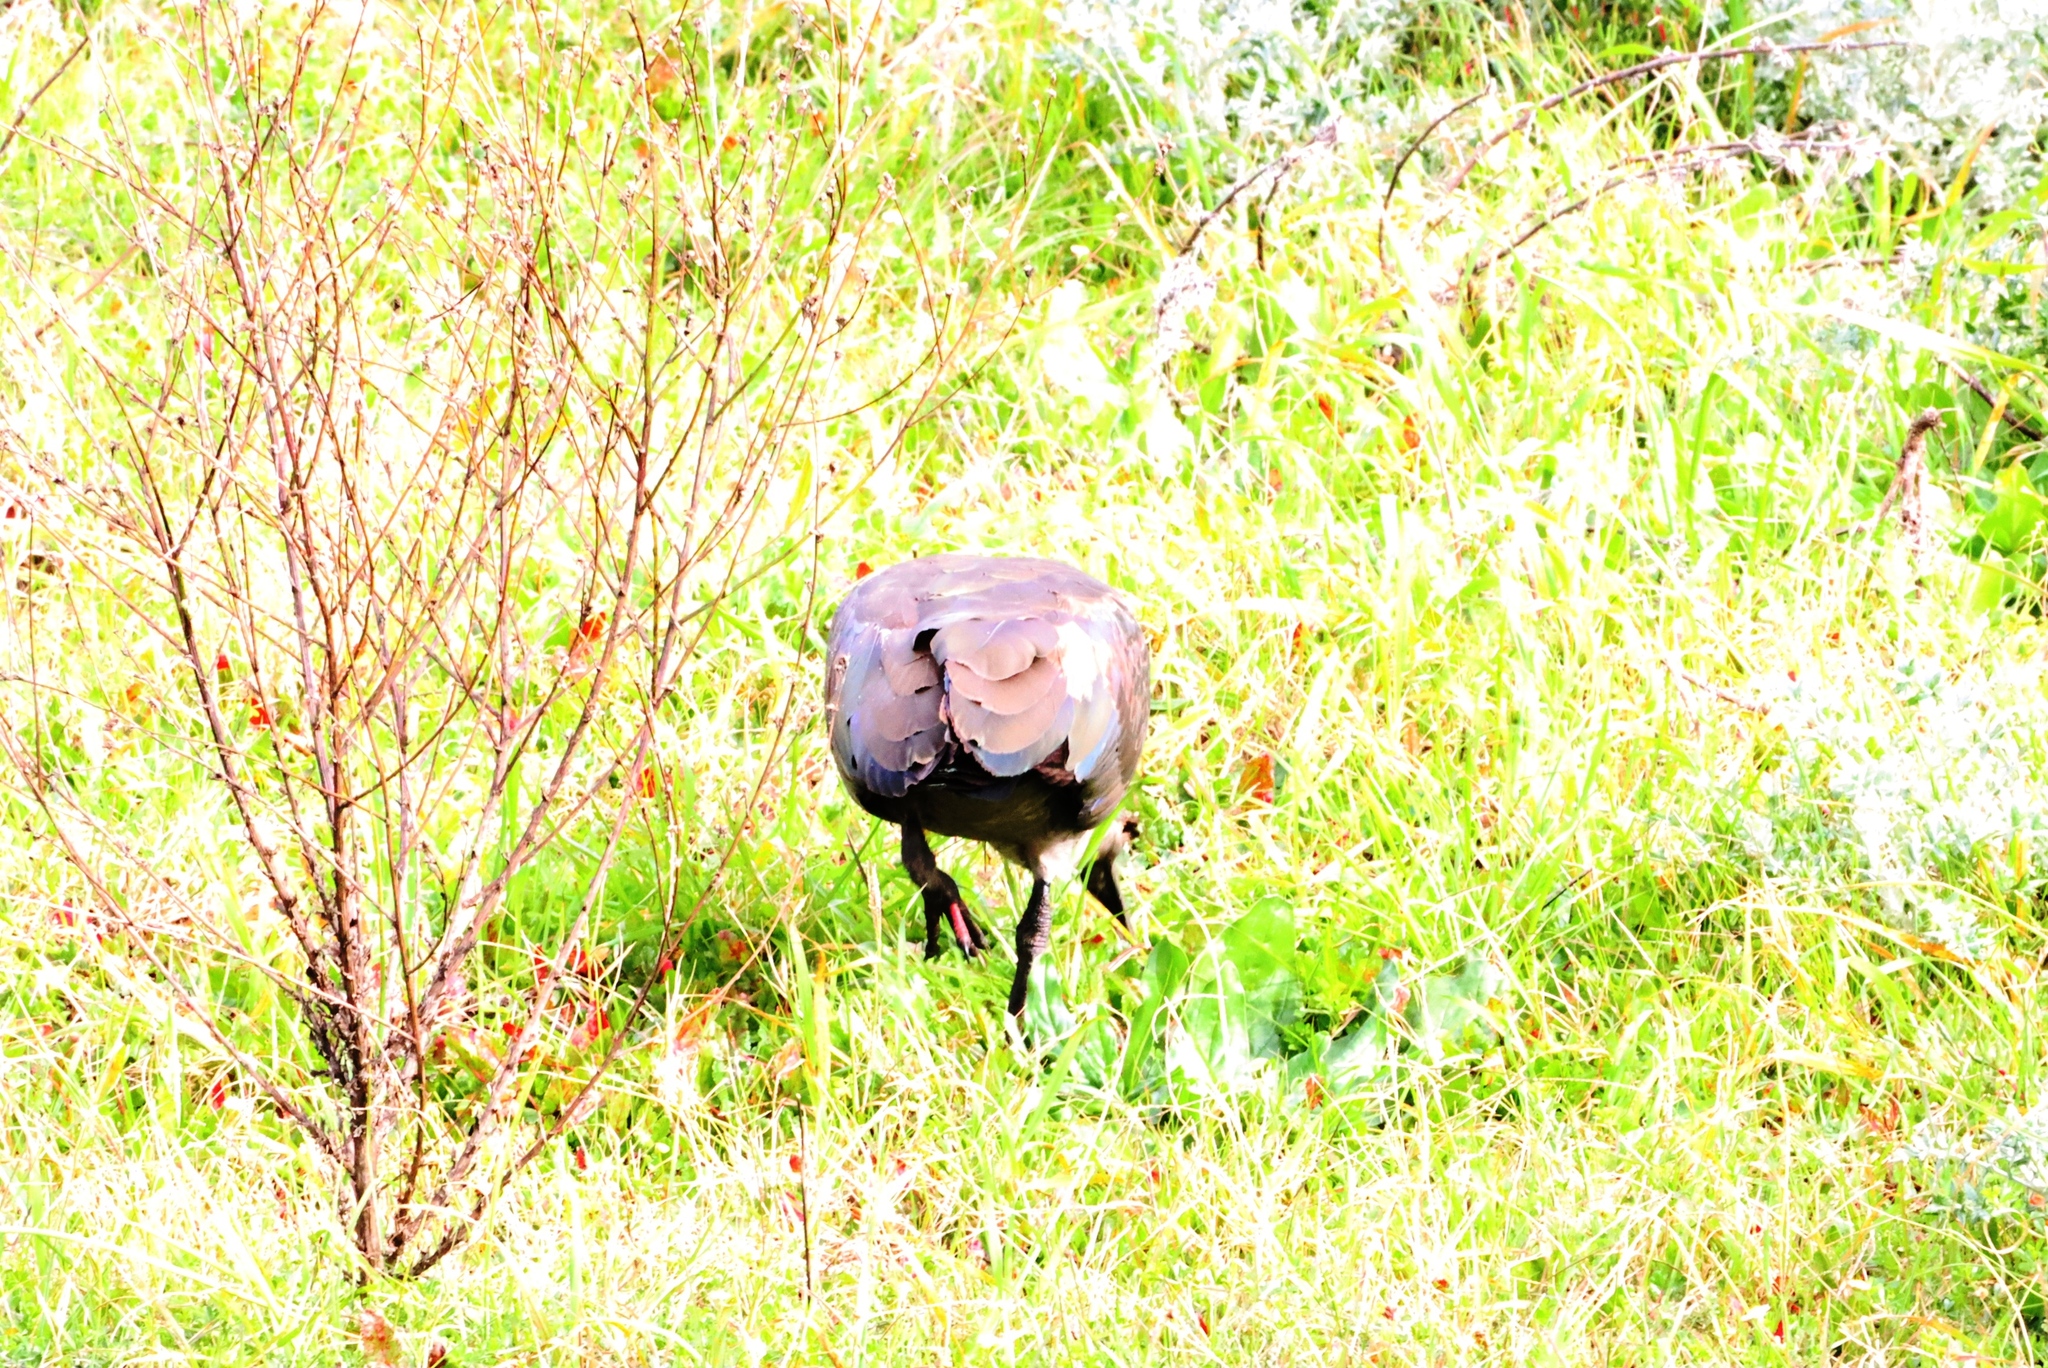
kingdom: Animalia
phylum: Chordata
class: Aves
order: Pelecaniformes
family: Threskiornithidae
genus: Bostrychia
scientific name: Bostrychia hagedash
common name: Hadada ibis
